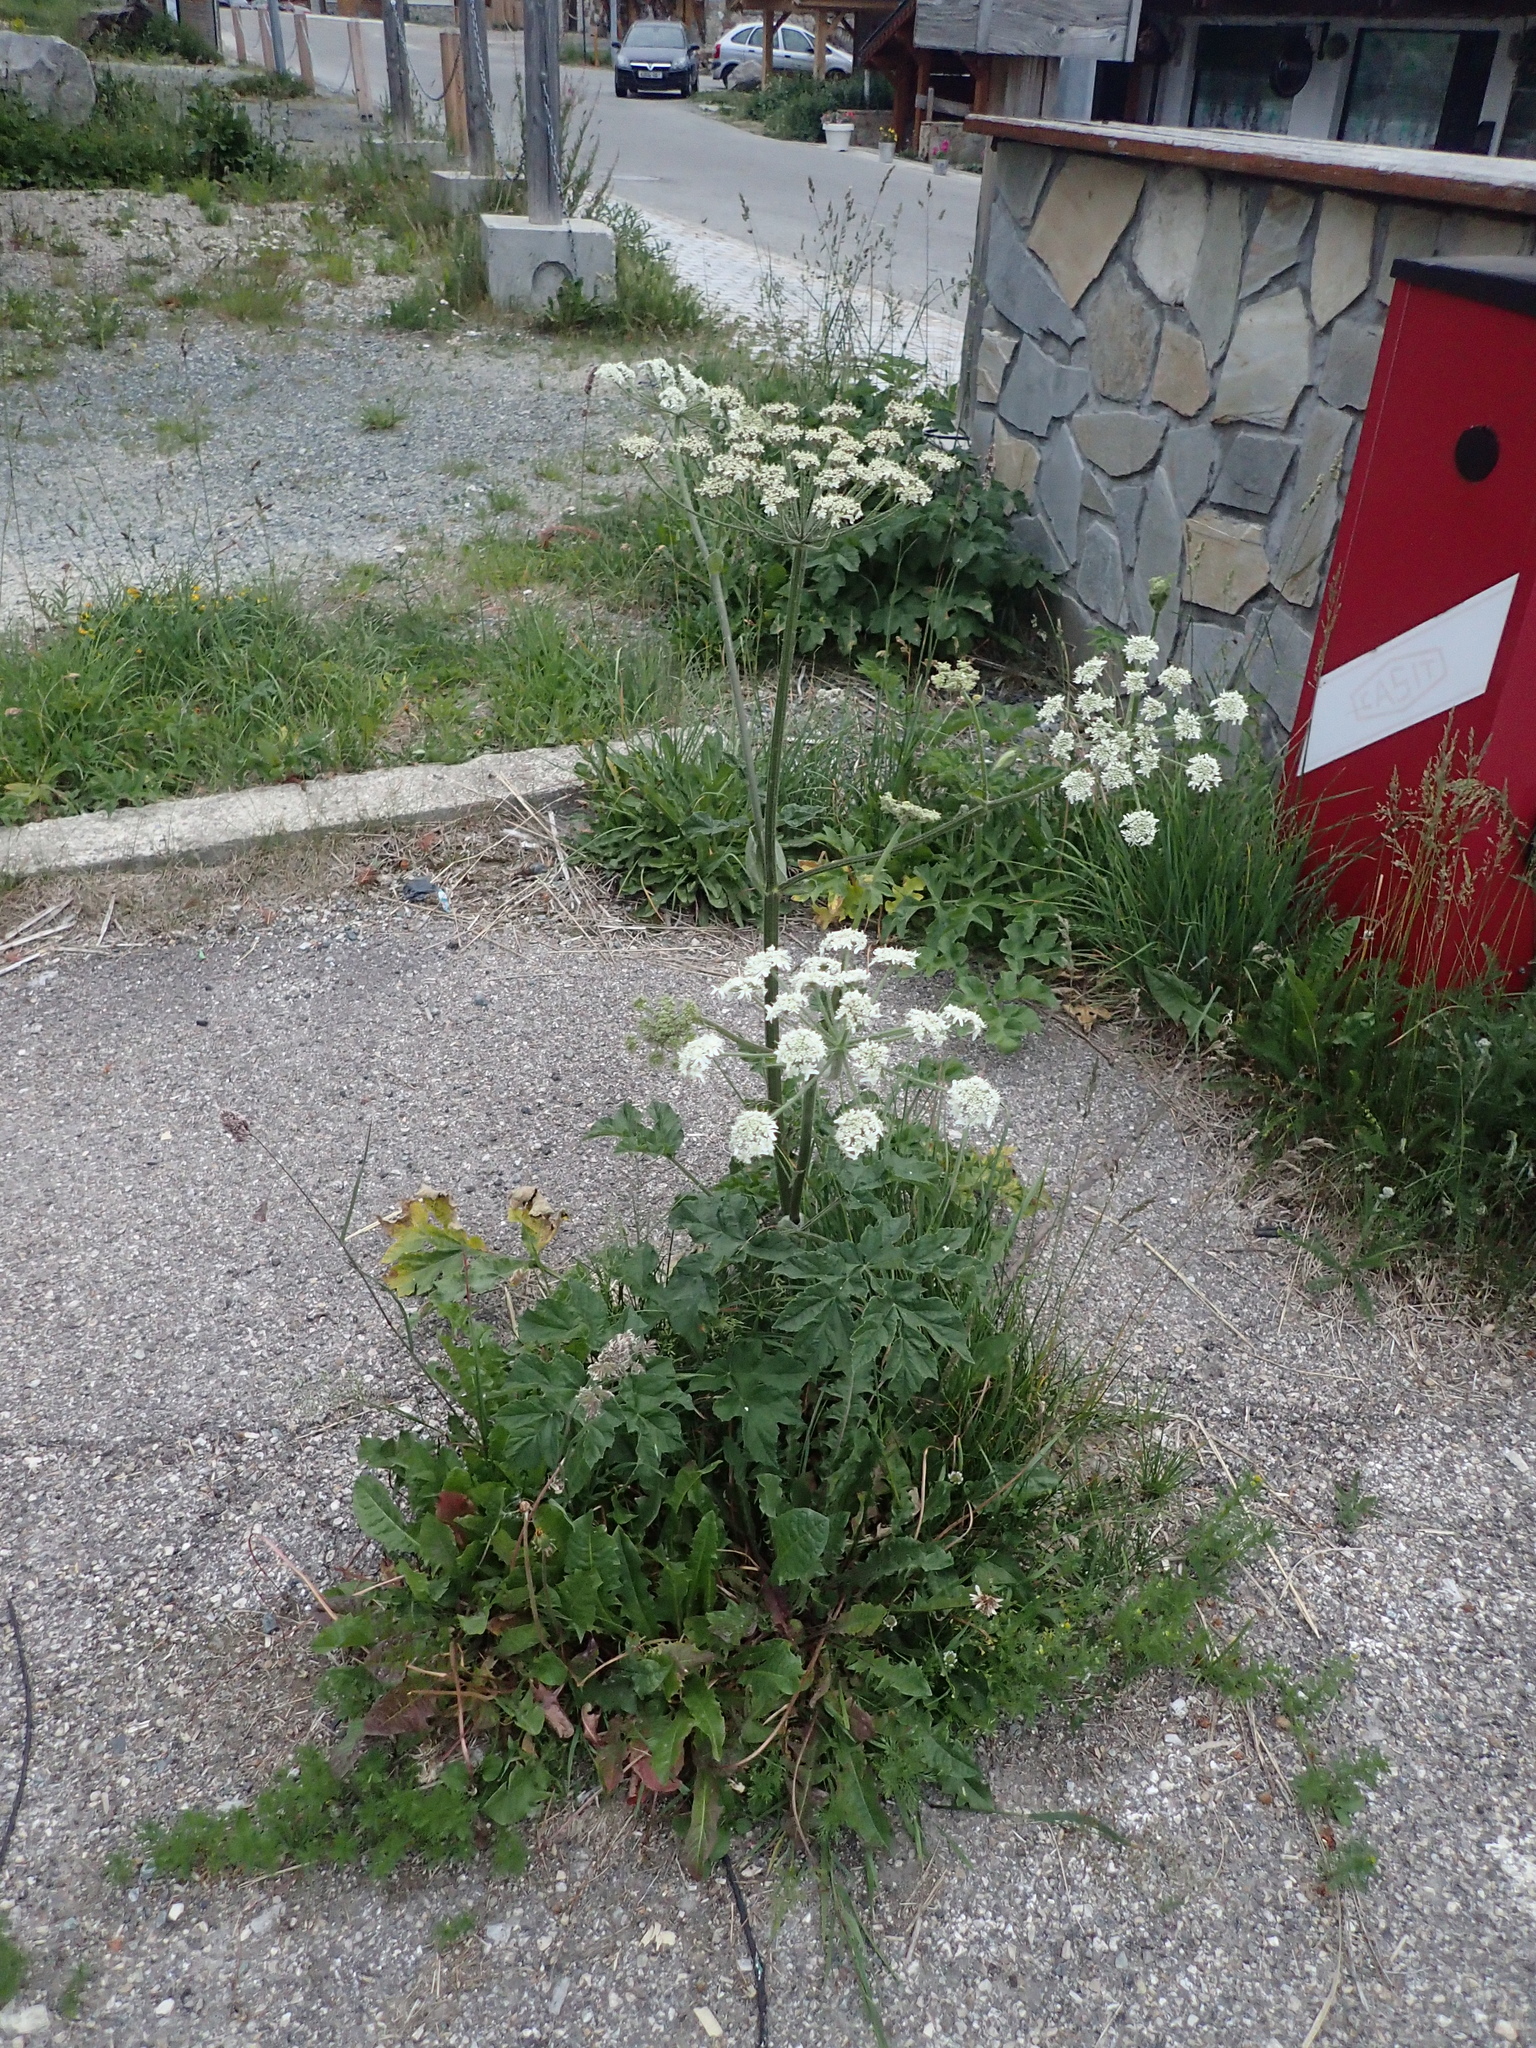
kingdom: Plantae
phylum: Tracheophyta
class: Magnoliopsida
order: Apiales
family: Apiaceae
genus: Heracleum
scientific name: Heracleum sphondylium
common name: Hogweed
